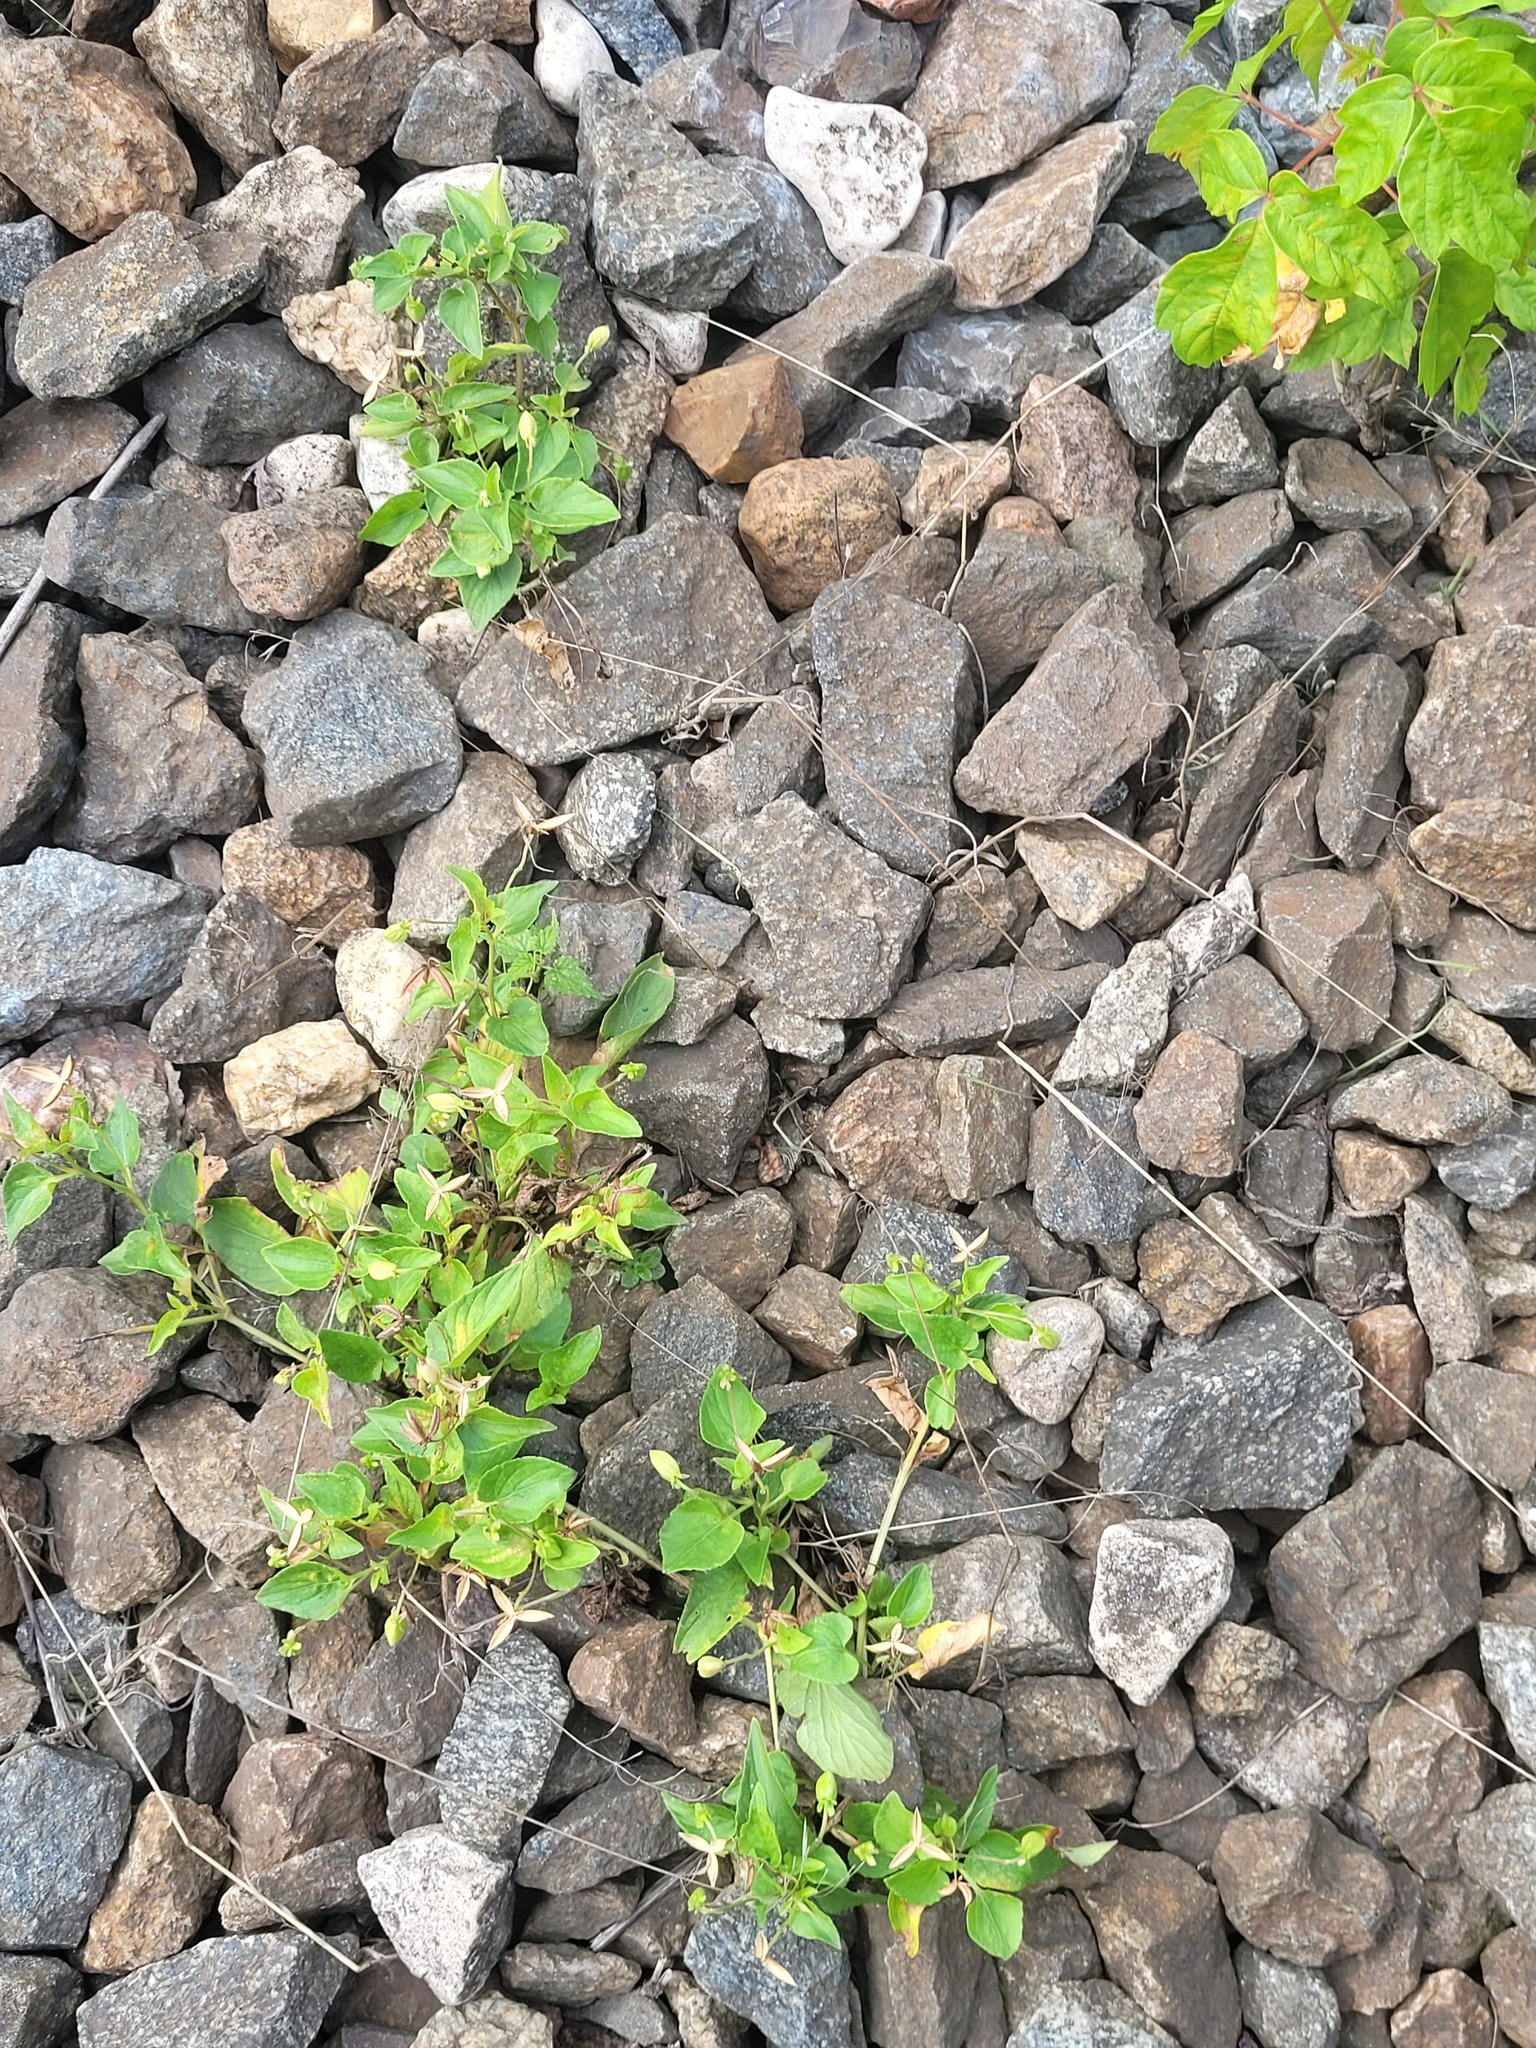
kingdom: Plantae
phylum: Tracheophyta
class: Magnoliopsida
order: Malpighiales
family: Violaceae
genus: Viola
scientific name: Viola canina
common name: Heath dog-violet
